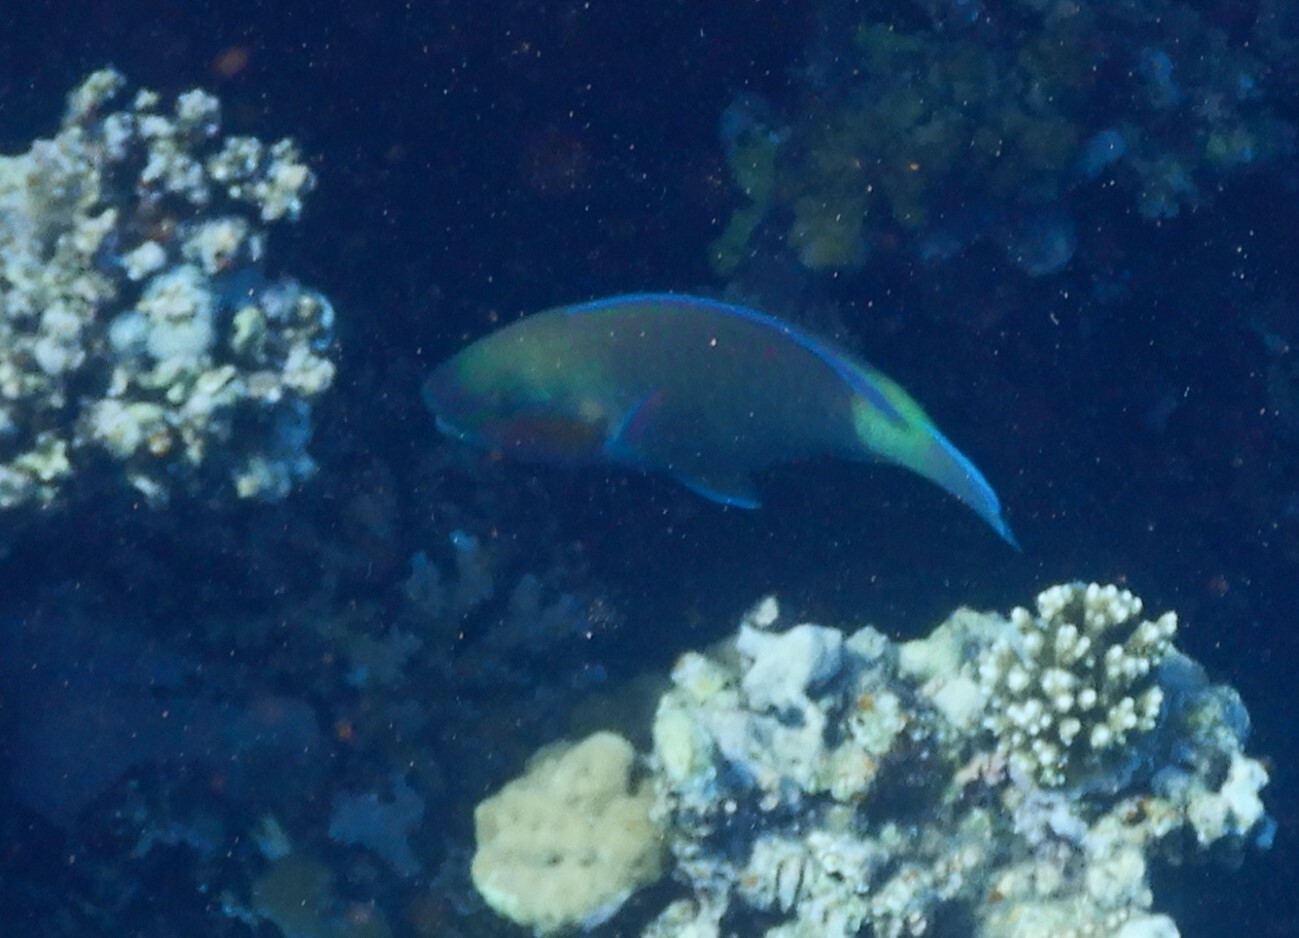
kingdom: Animalia
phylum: Chordata
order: Perciformes
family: Scaridae
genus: Chlorurus
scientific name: Chlorurus sordidus
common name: Bullethead parrotfish
